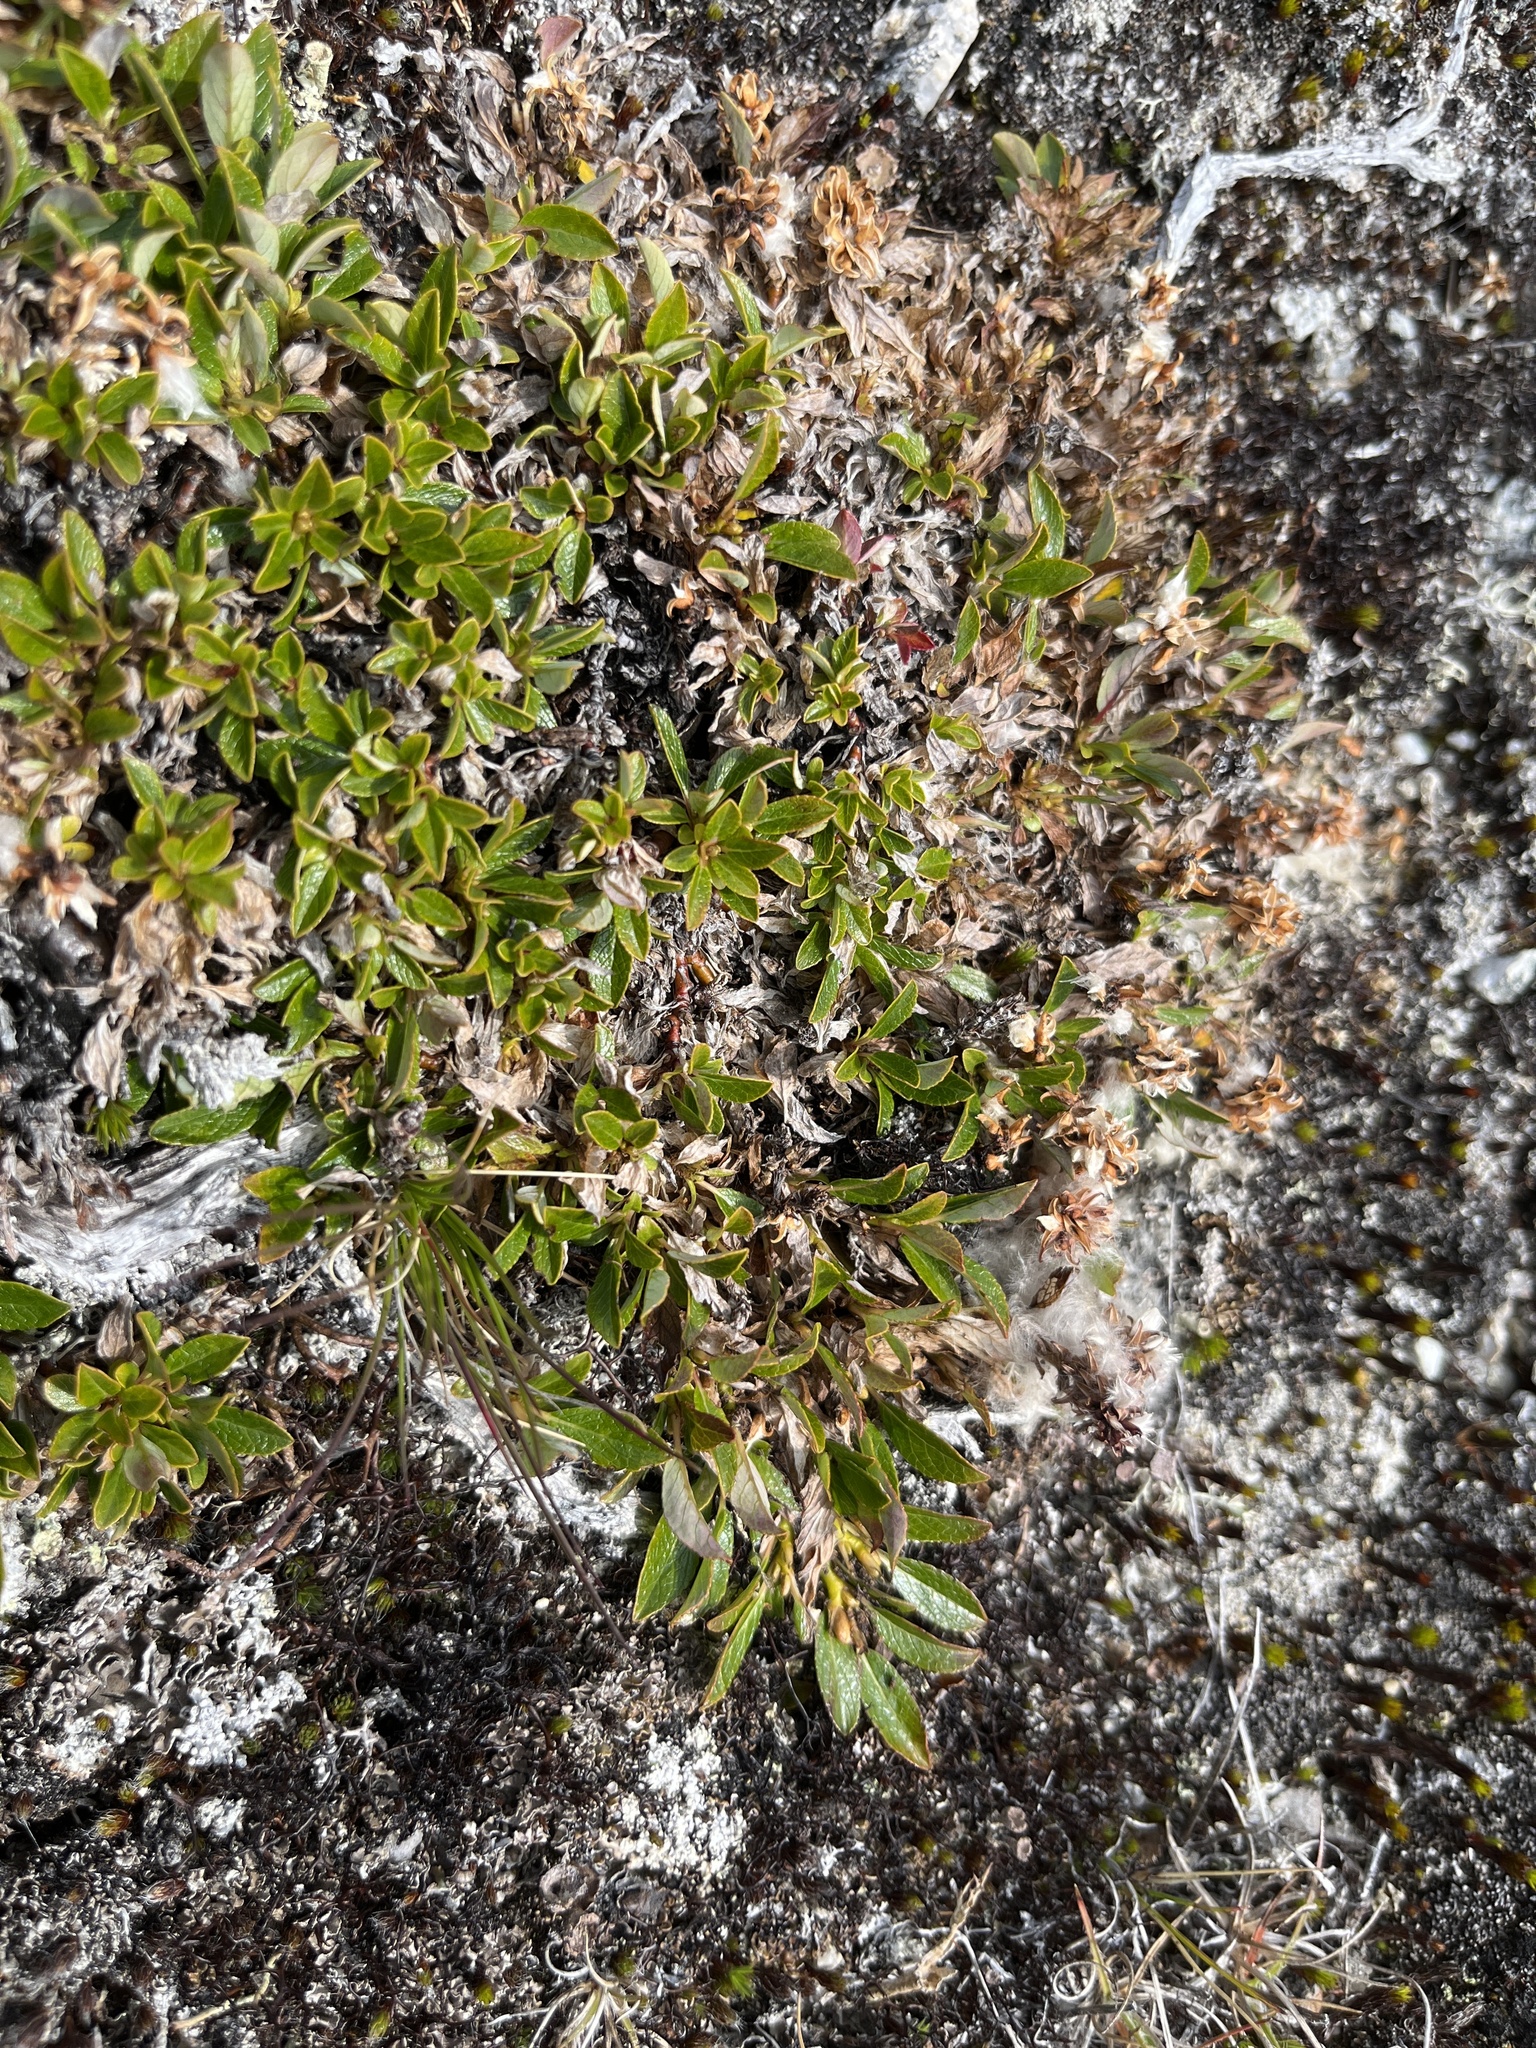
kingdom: Plantae
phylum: Tracheophyta
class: Magnoliopsida
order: Malpighiales
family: Salicaceae
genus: Salix
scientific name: Salix uva-ursi
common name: Bearberry willow
